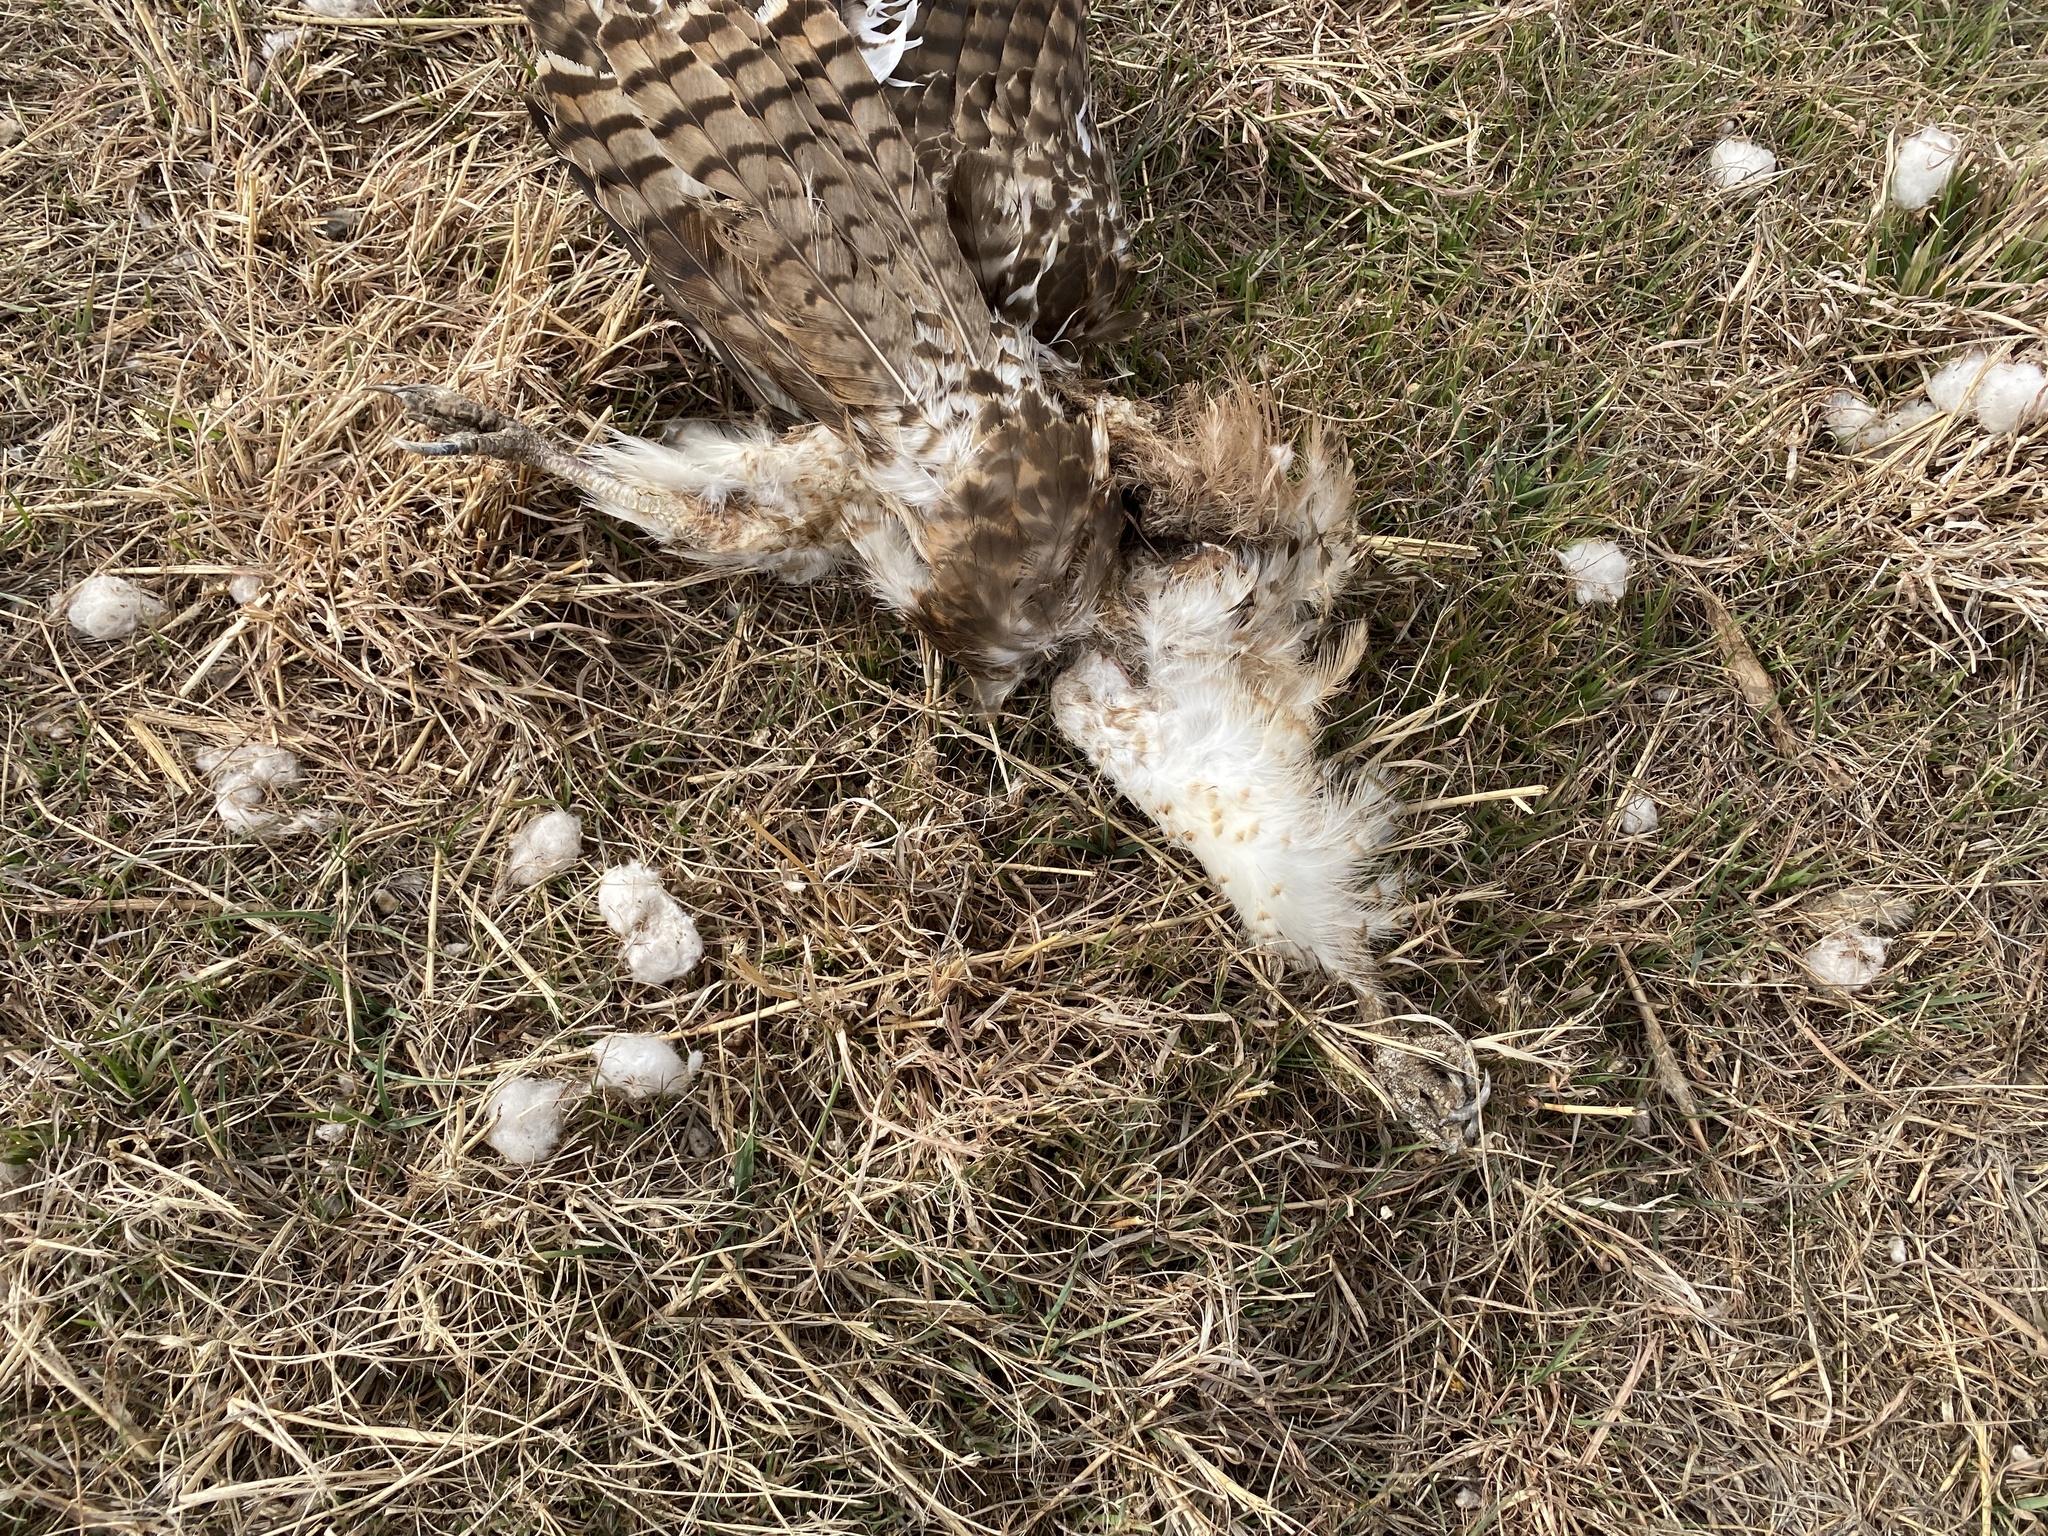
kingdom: Animalia
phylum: Chordata
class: Aves
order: Accipitriformes
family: Accipitridae
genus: Buteo
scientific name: Buteo jamaicensis
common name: Red-tailed hawk
